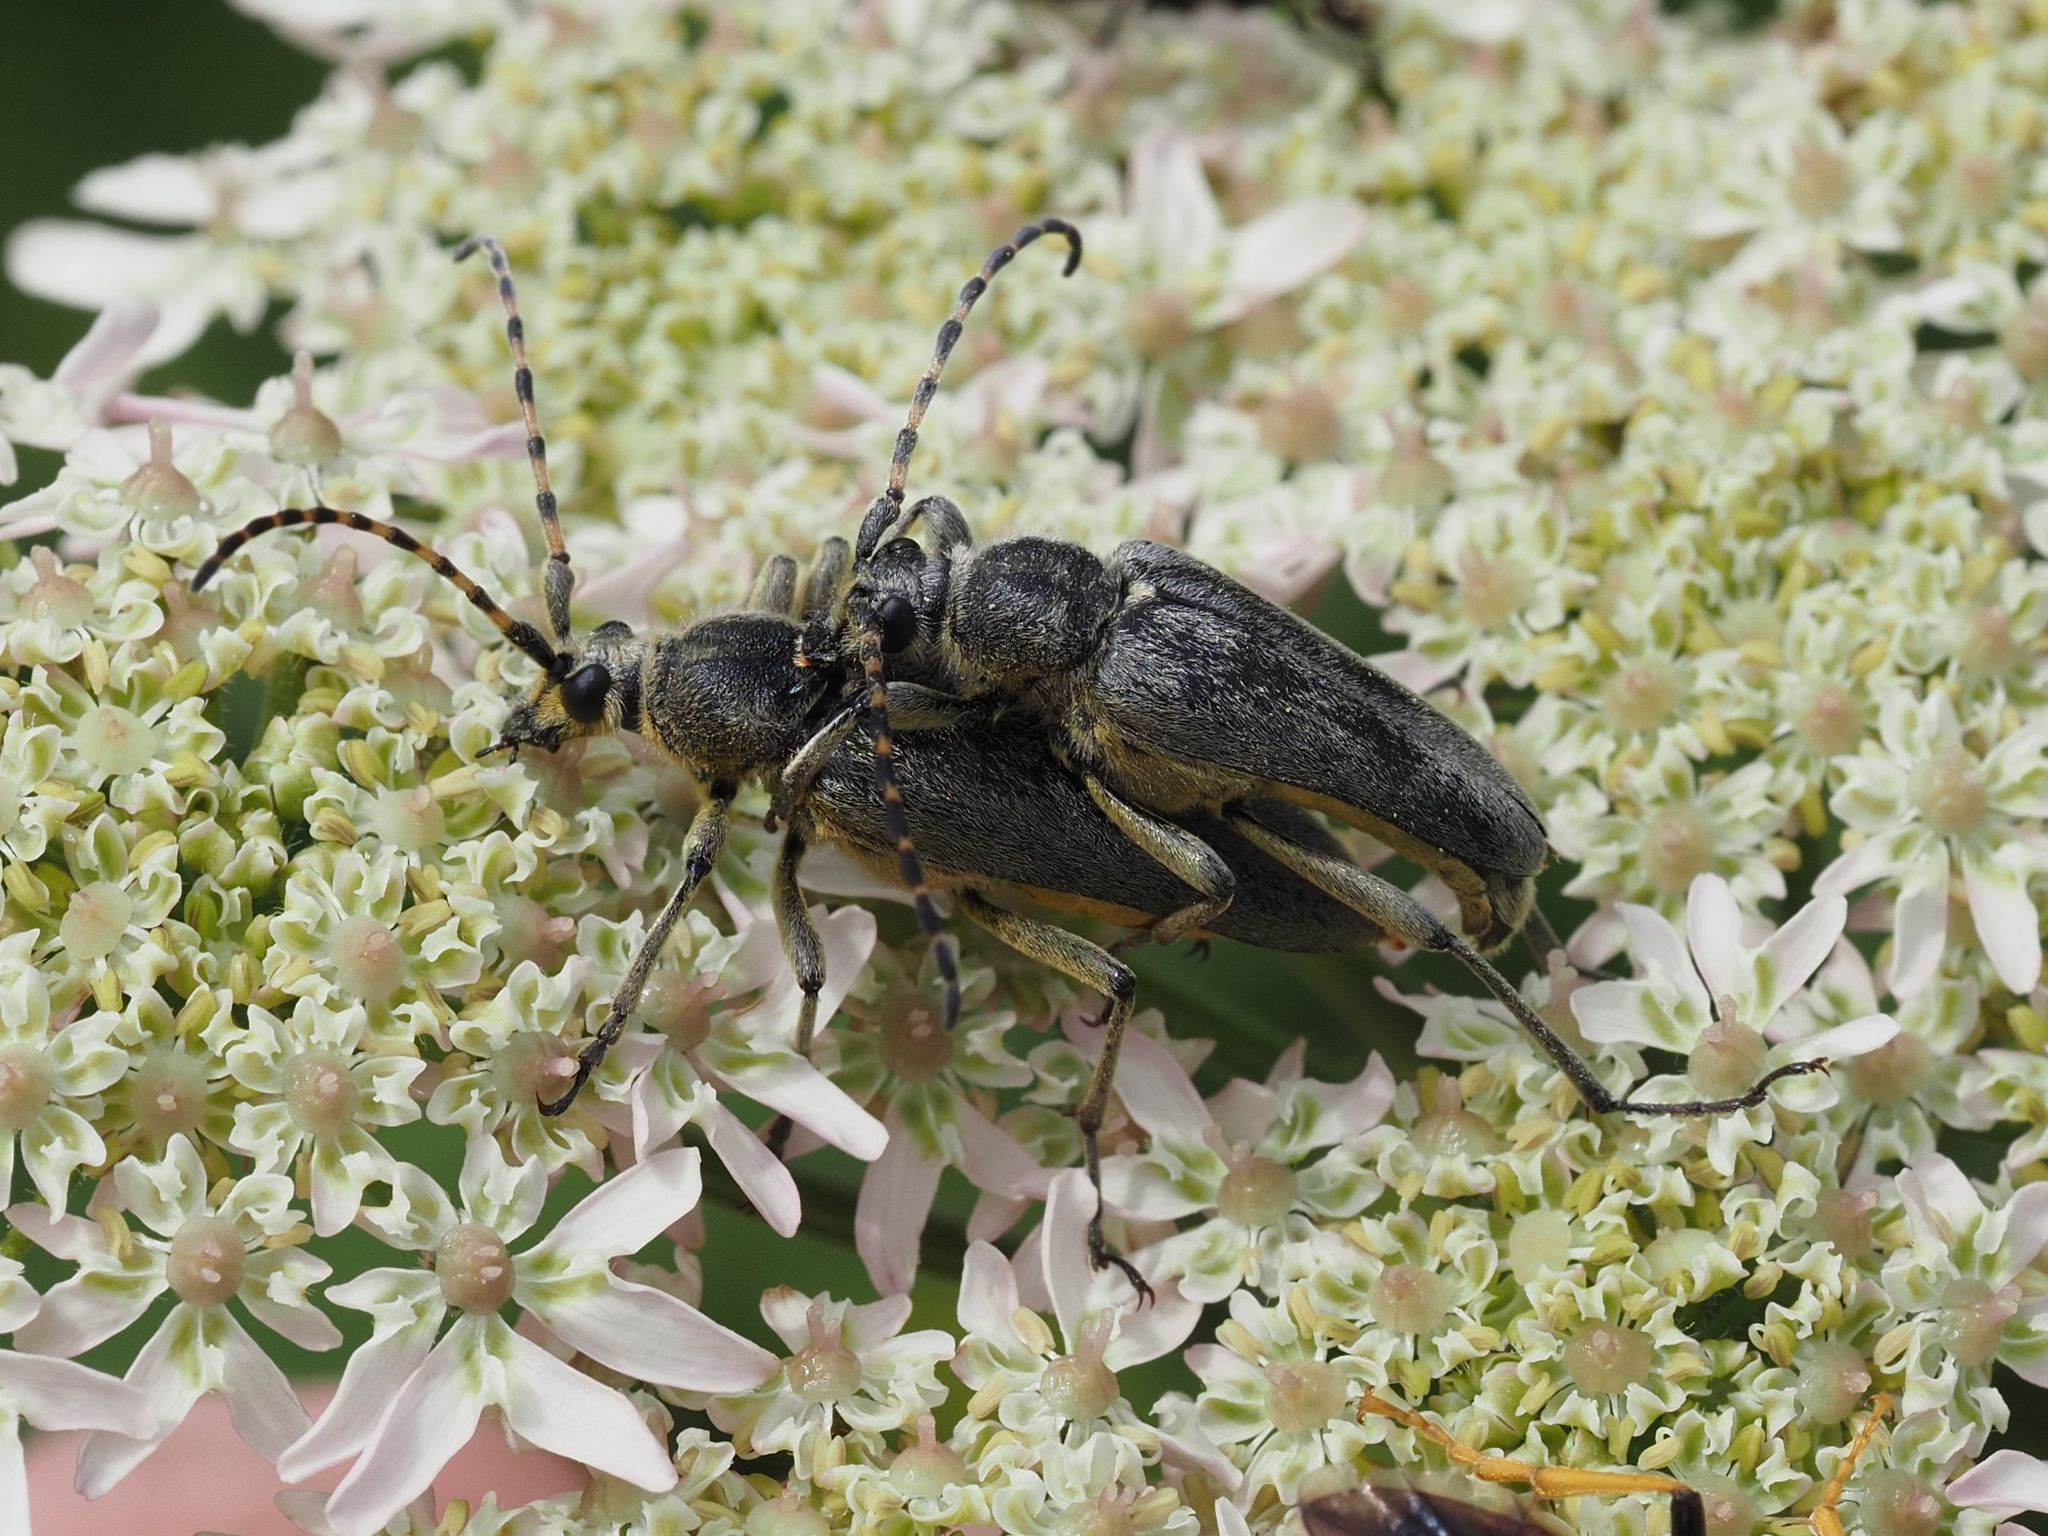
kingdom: Animalia
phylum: Arthropoda
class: Insecta
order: Coleoptera
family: Cerambycidae
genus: Lepturobosca
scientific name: Lepturobosca virens
